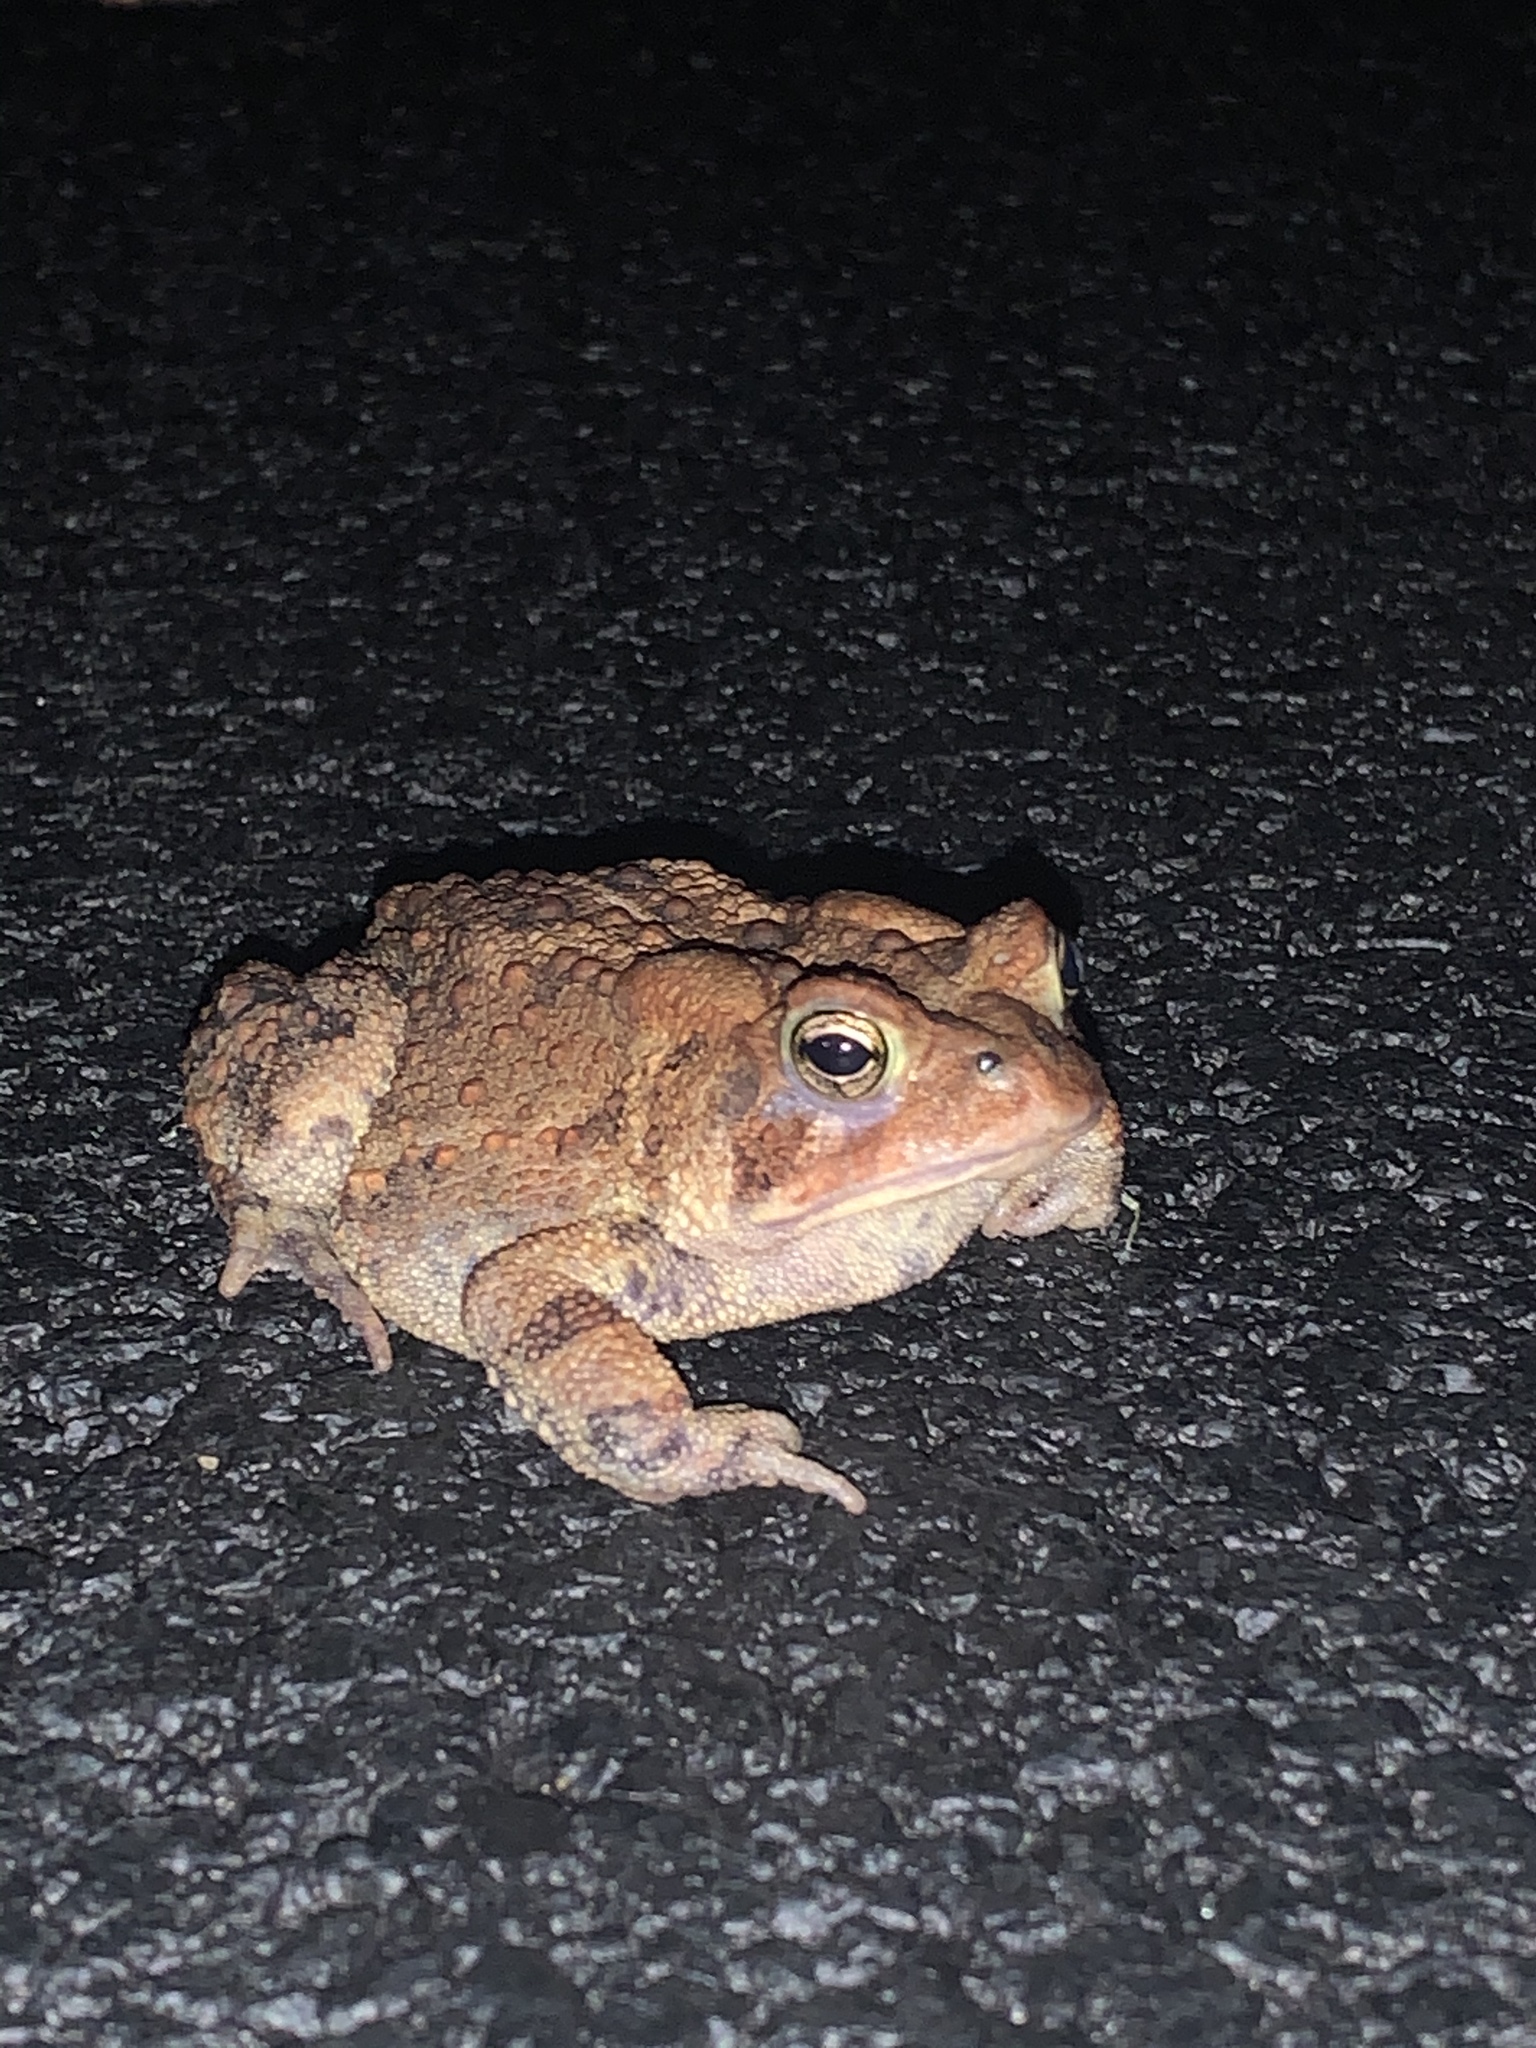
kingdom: Animalia
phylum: Chordata
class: Amphibia
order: Anura
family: Bufonidae
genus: Anaxyrus
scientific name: Anaxyrus americanus
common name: American toad
